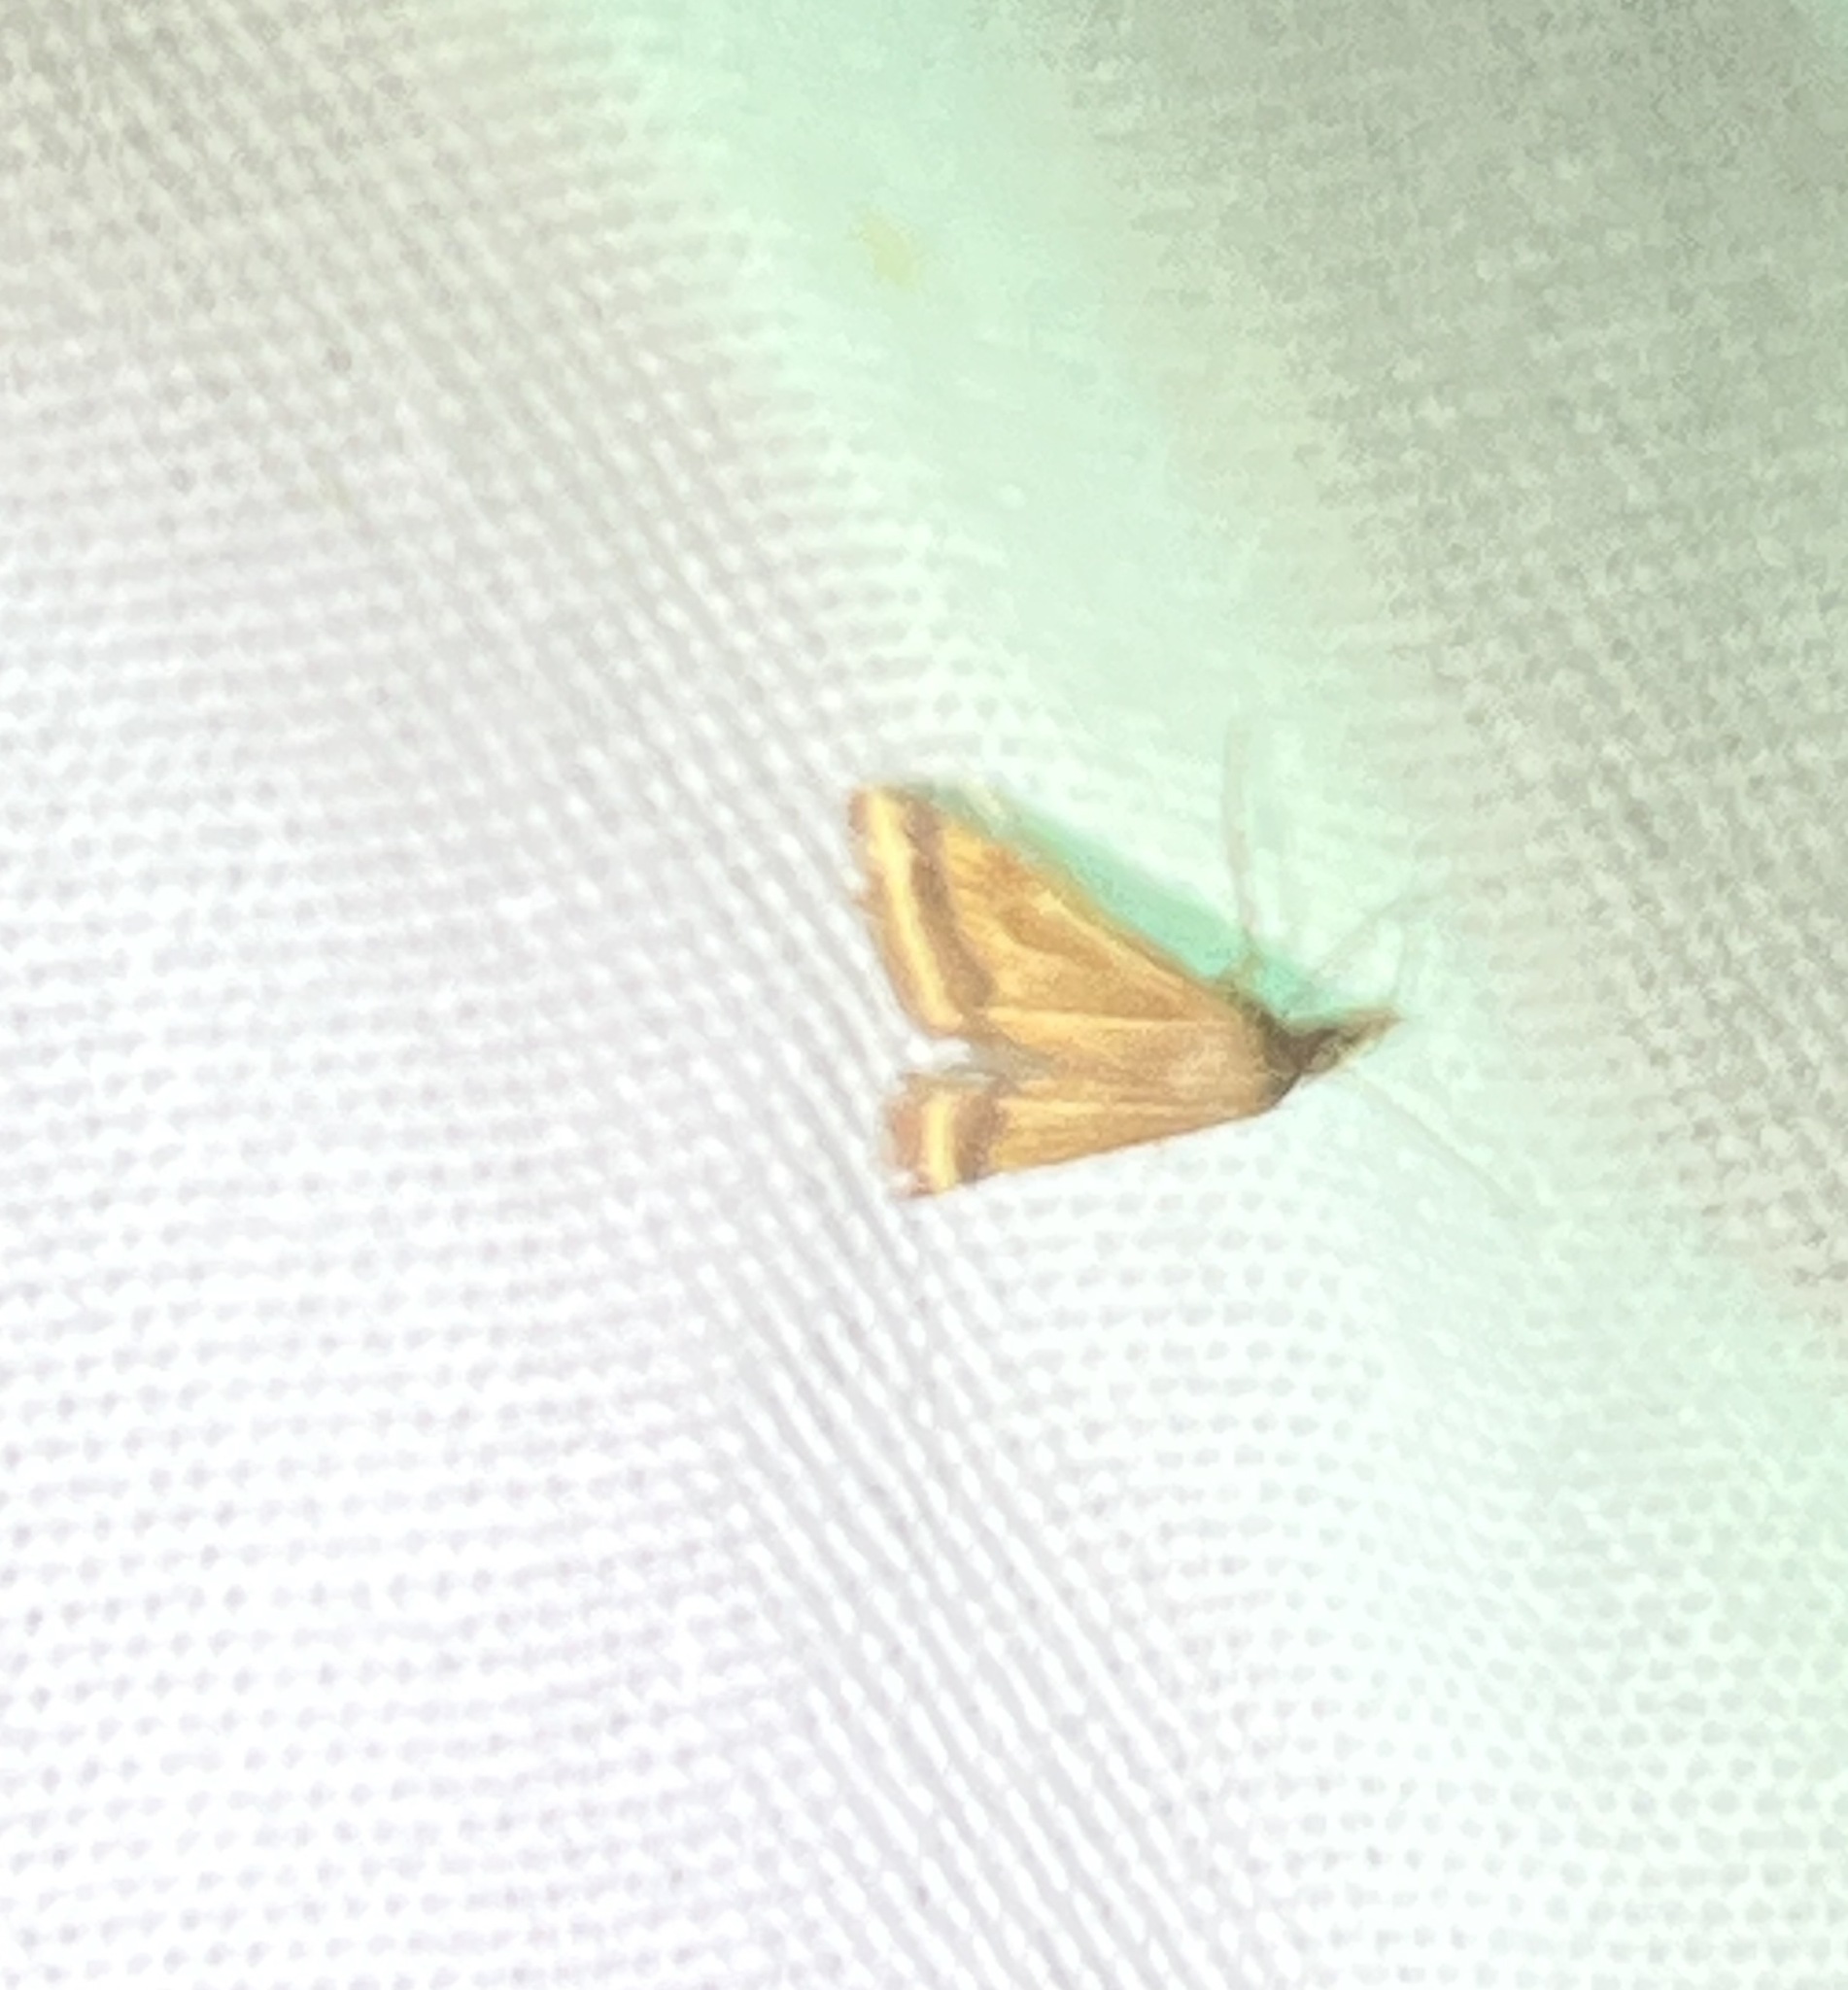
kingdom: Animalia
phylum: Arthropoda
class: Insecta
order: Lepidoptera
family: Crambidae
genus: Microtheoris
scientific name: Microtheoris ophionalis
